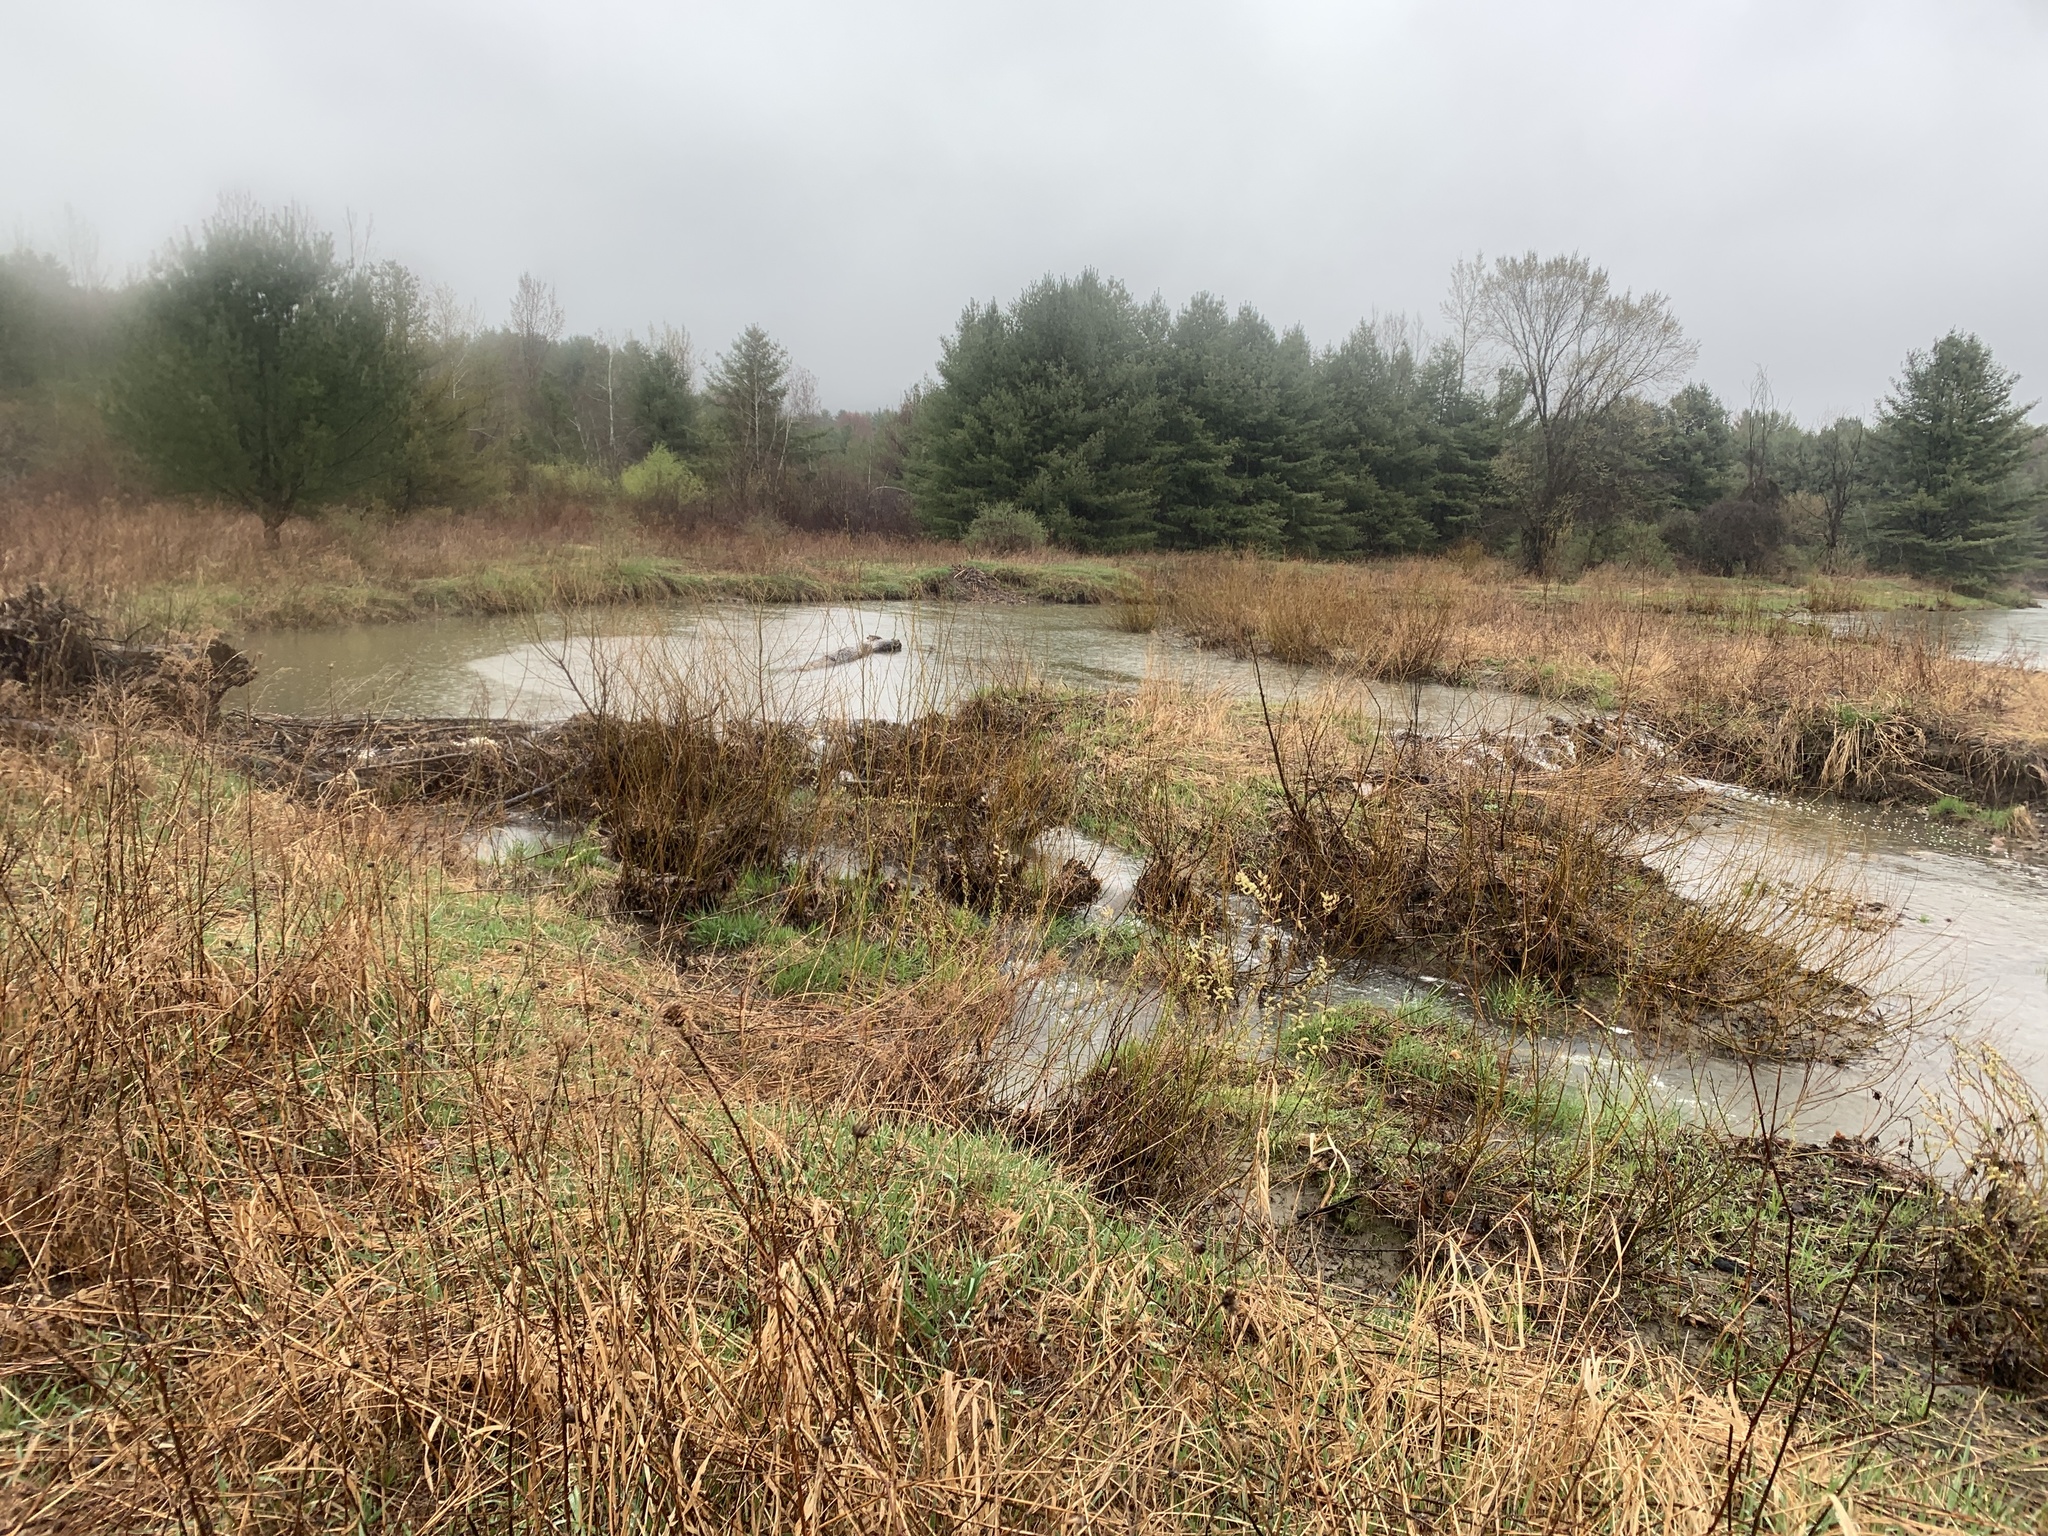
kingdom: Animalia
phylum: Chordata
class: Mammalia
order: Rodentia
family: Castoridae
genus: Castor
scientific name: Castor canadensis
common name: American beaver
